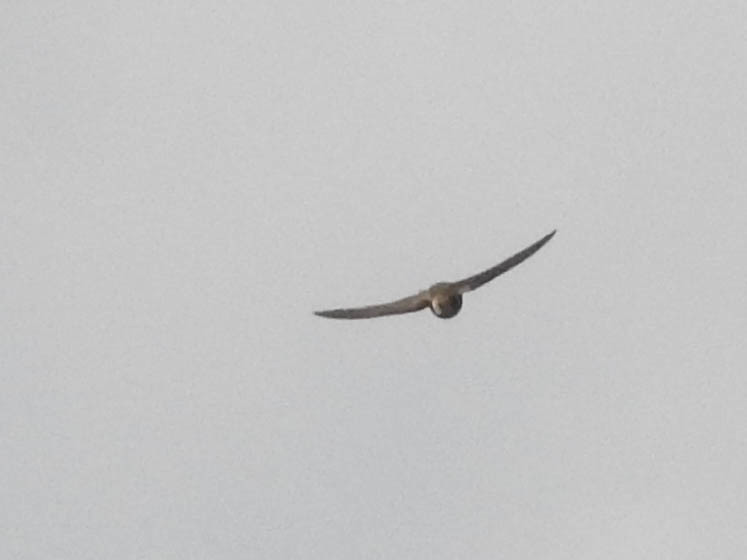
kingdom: Animalia
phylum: Chordata
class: Aves
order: Passeriformes
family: Hirundinidae
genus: Stelgidopteryx
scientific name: Stelgidopteryx serripennis
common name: Northern rough-winged swallow
